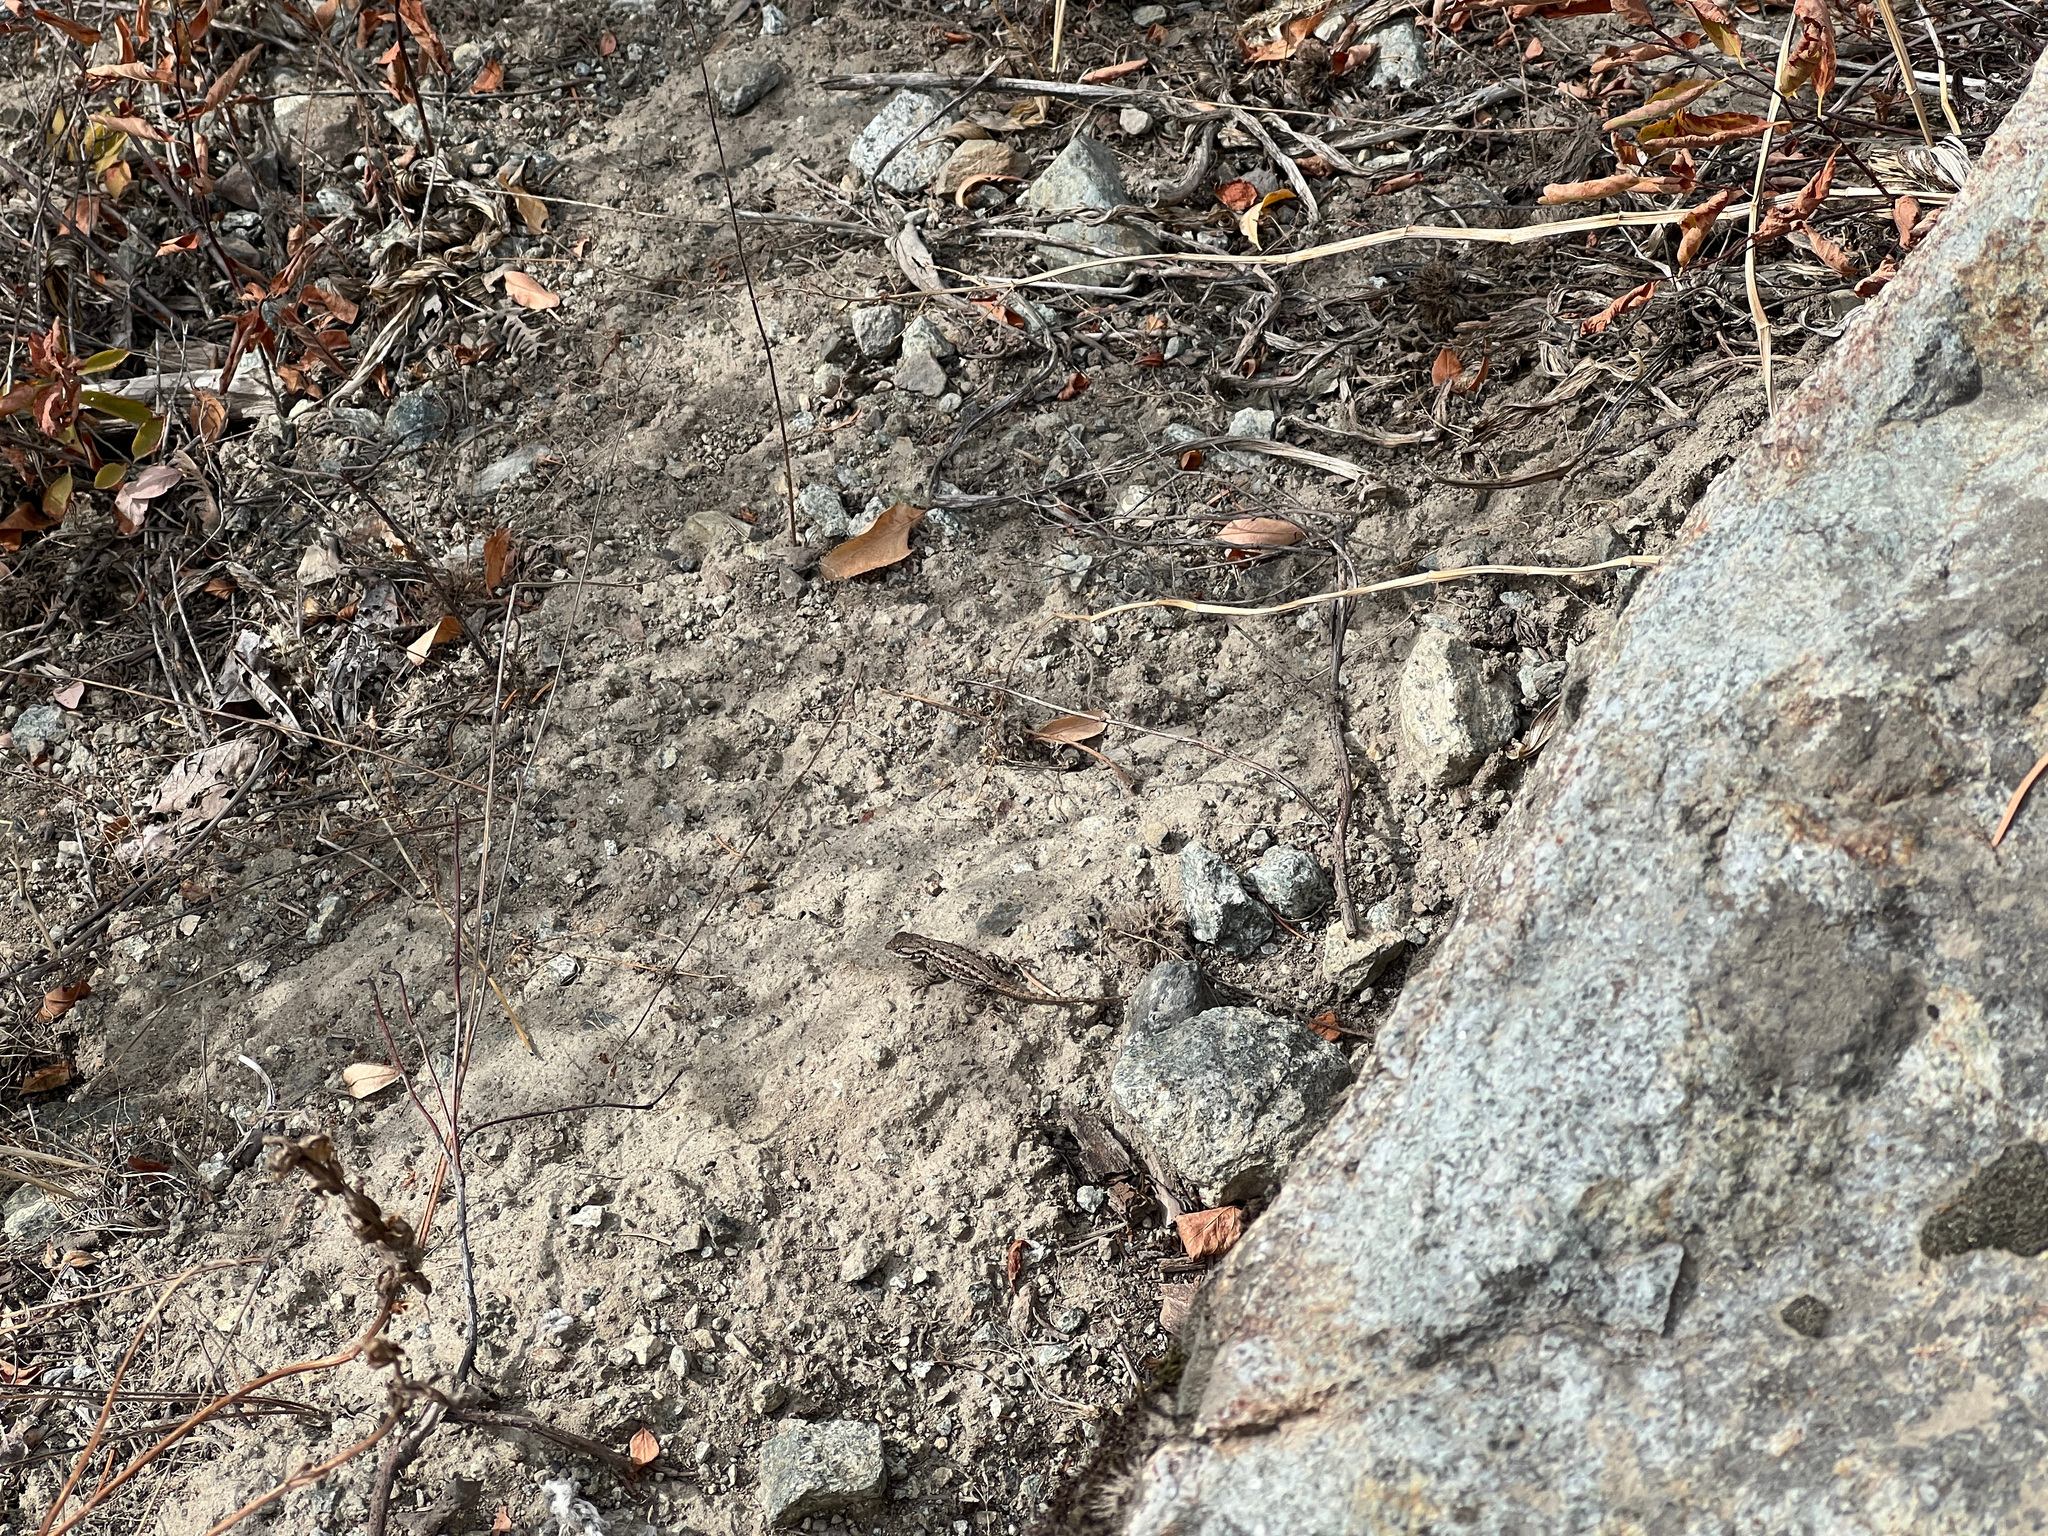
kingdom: Animalia
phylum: Chordata
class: Squamata
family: Phrynosomatidae
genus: Sceloporus
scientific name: Sceloporus occidentalis
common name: Western fence lizard
